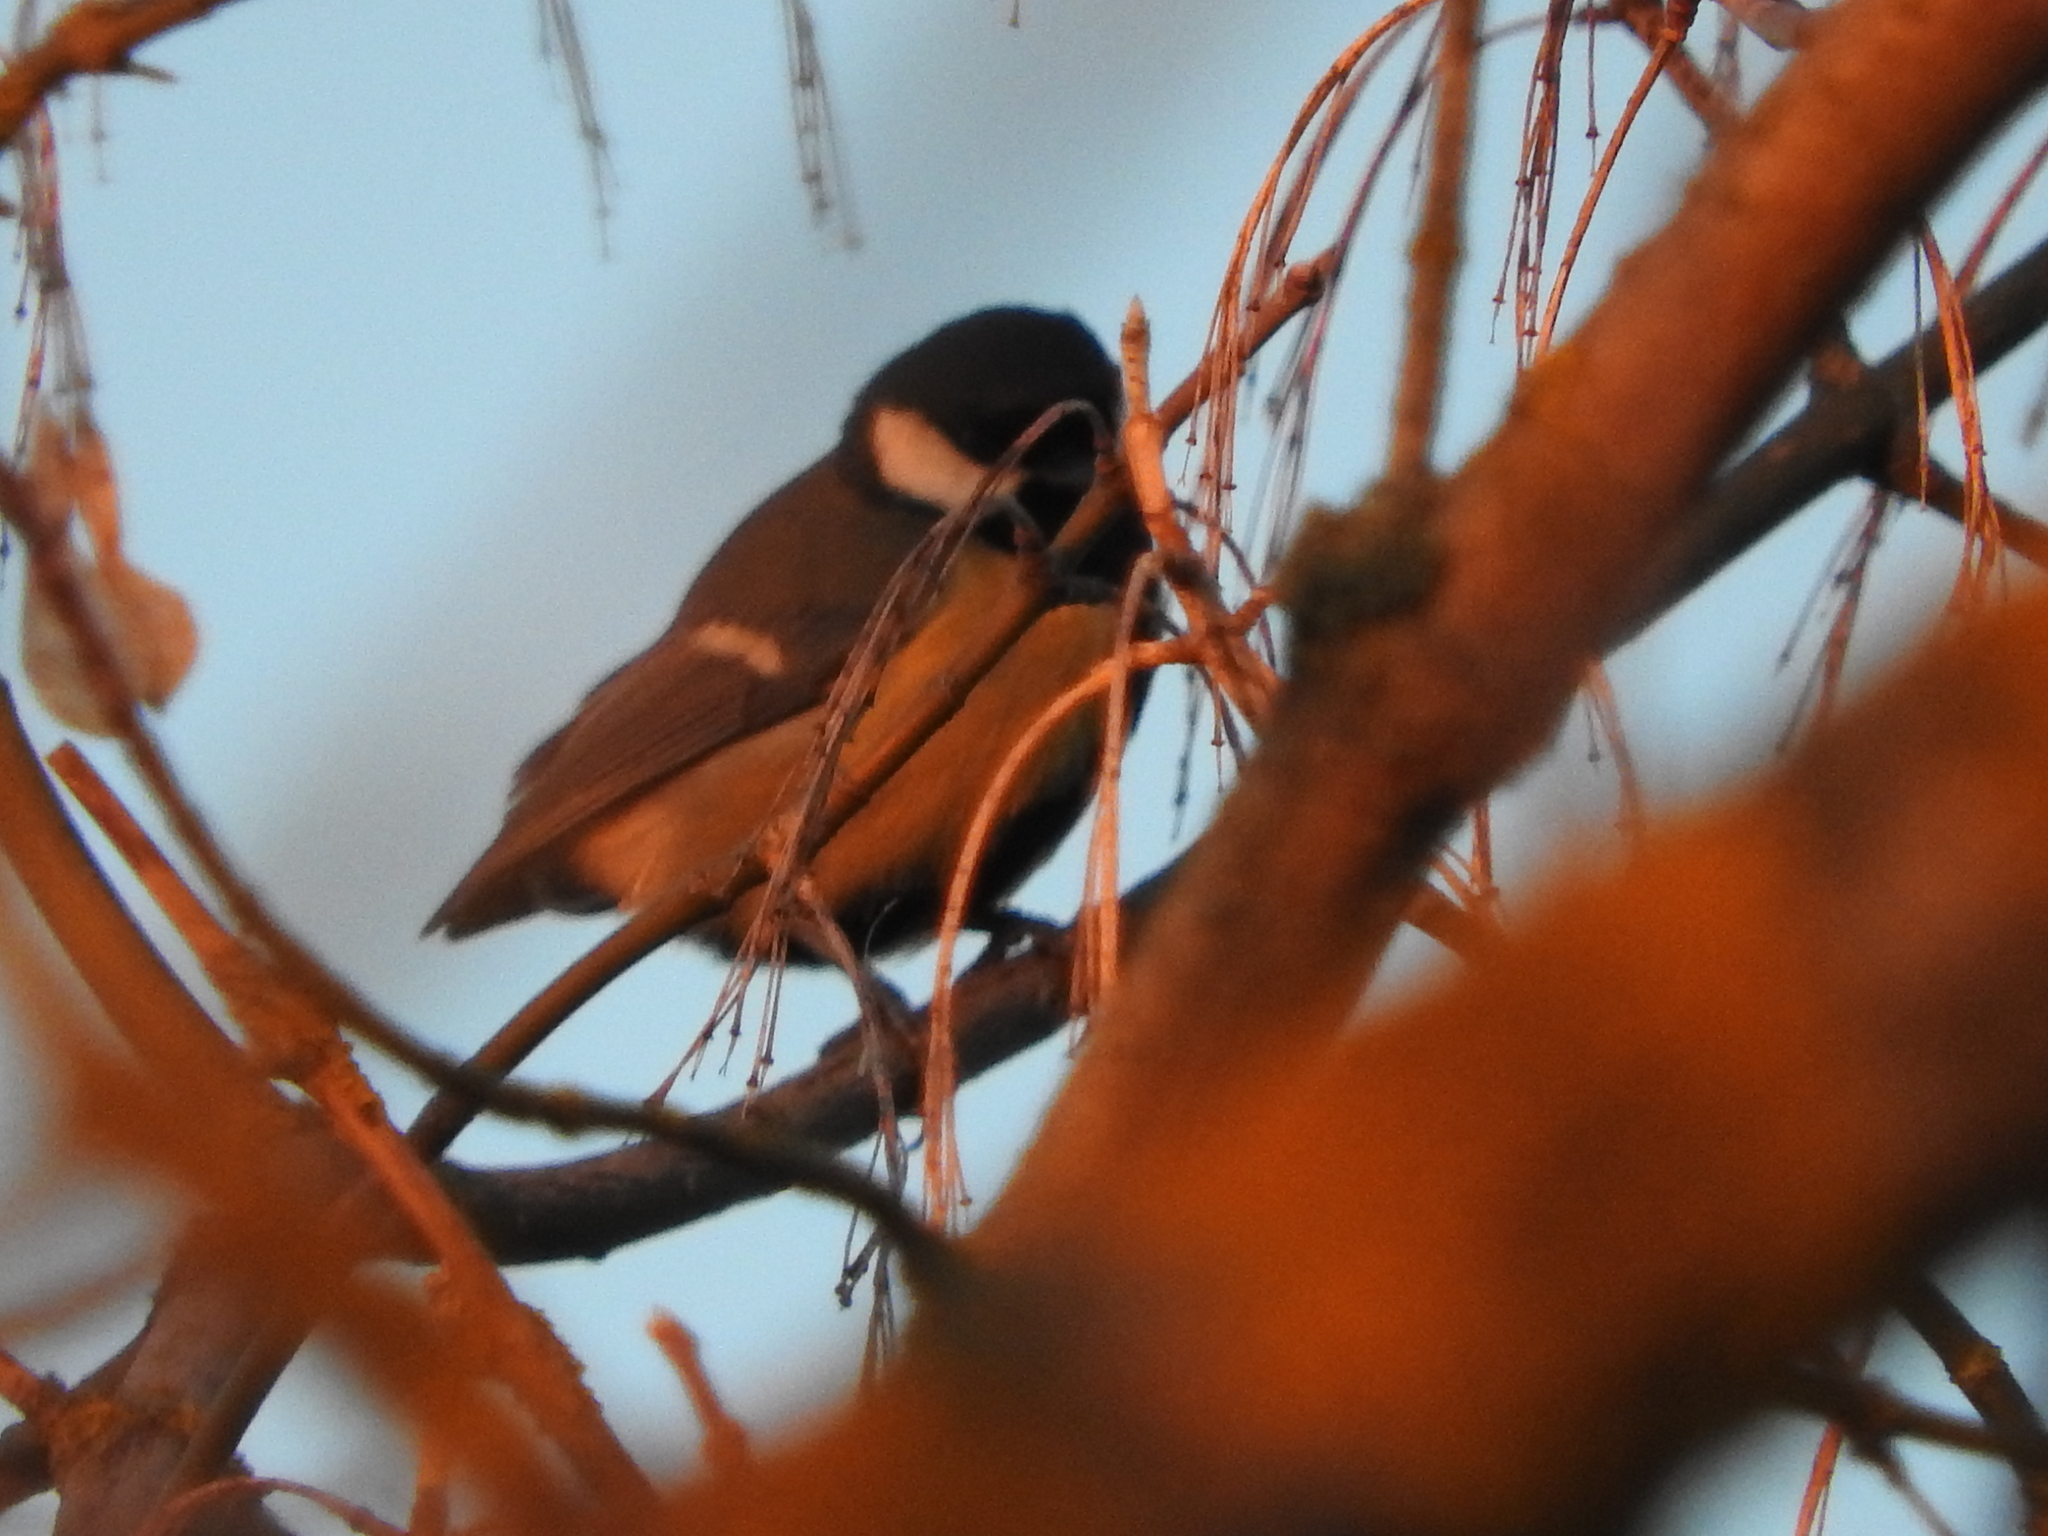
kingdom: Animalia
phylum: Chordata
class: Aves
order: Passeriformes
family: Paridae
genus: Parus
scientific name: Parus major
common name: Great tit
